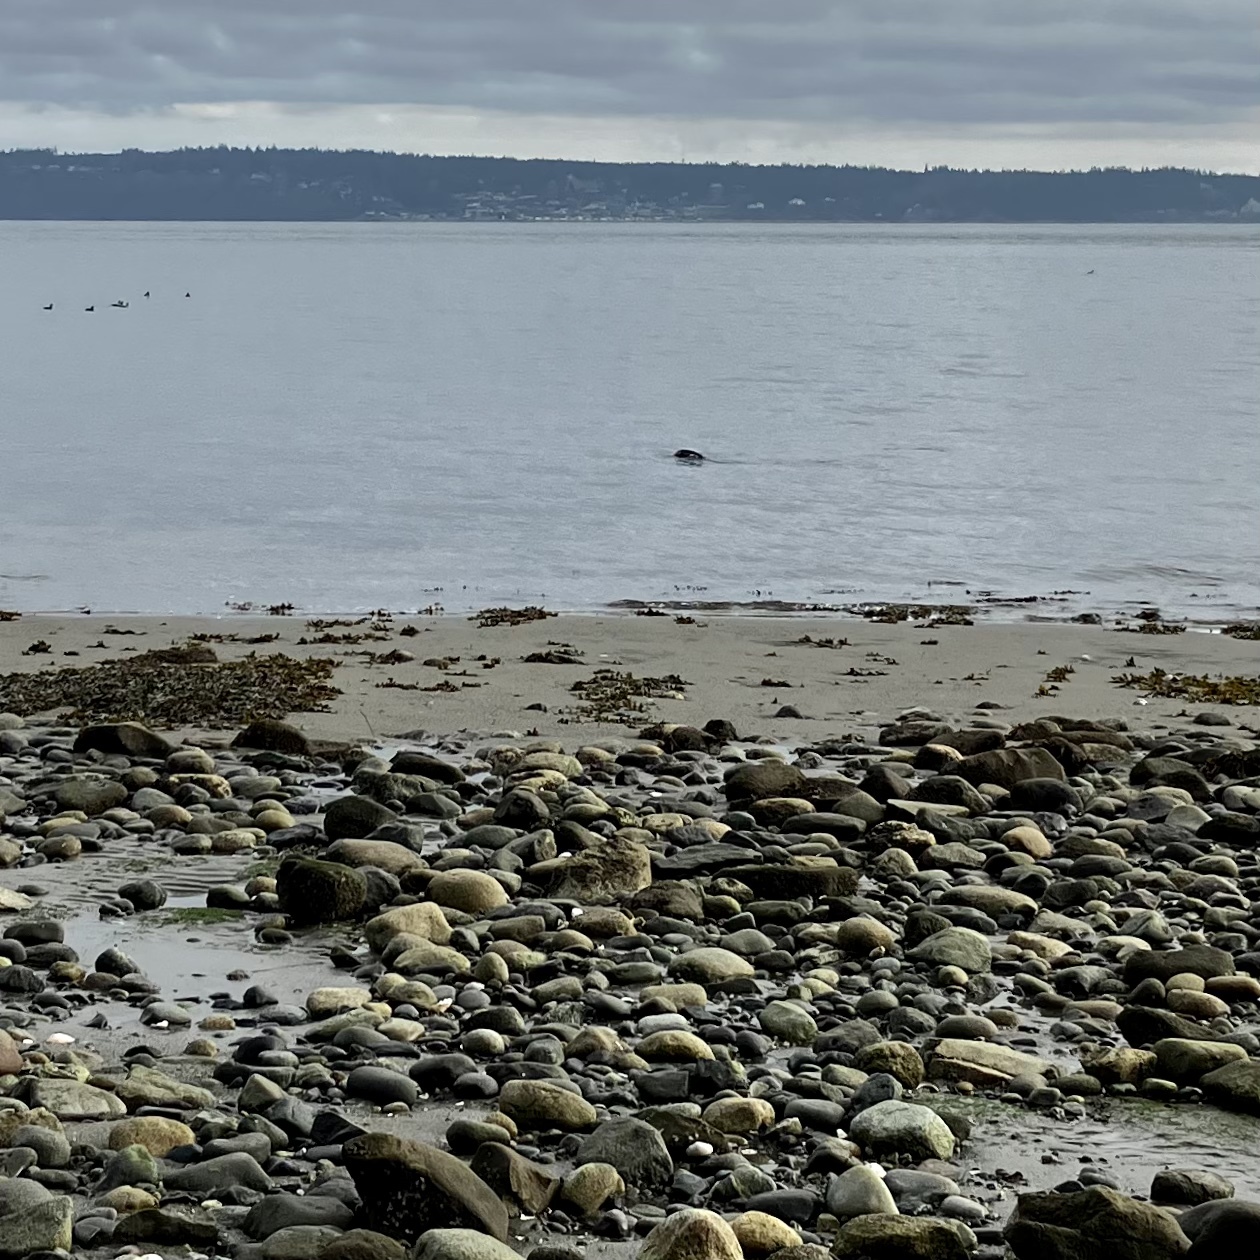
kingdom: Animalia
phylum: Chordata
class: Mammalia
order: Carnivora
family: Mustelidae
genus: Lontra
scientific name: Lontra canadensis
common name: North american river otter
